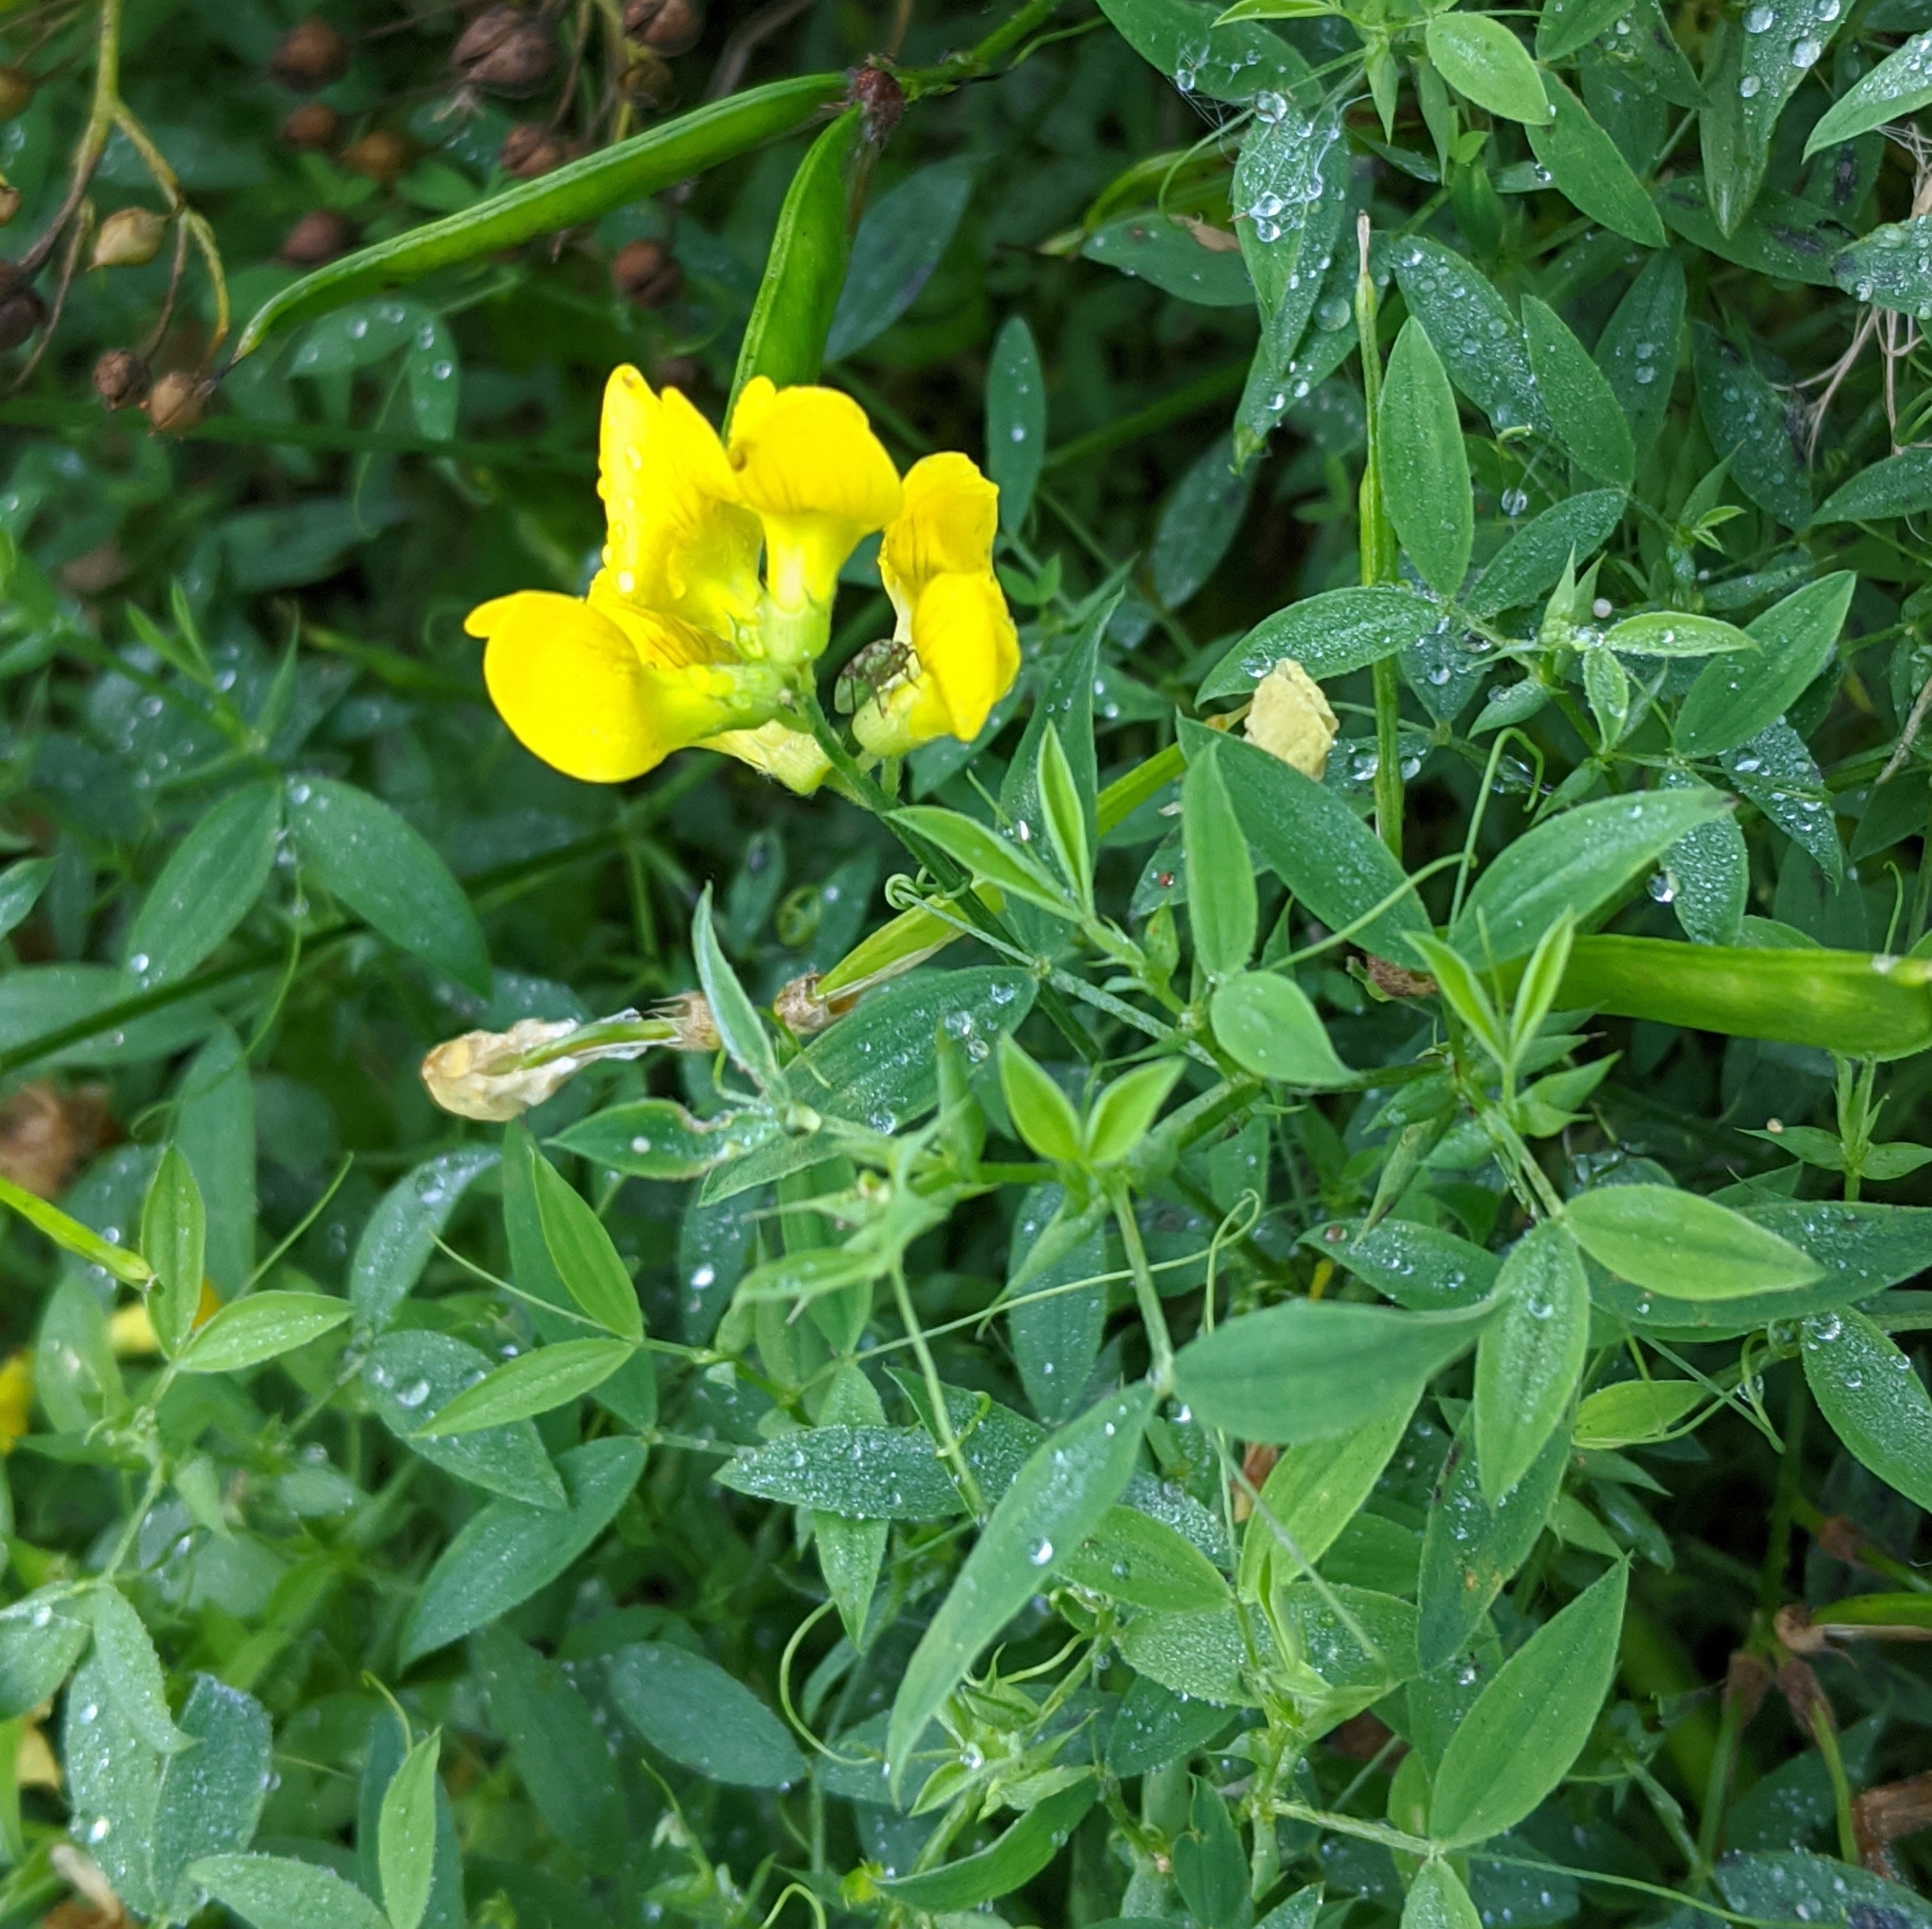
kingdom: Plantae
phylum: Tracheophyta
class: Magnoliopsida
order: Fabales
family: Fabaceae
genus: Lathyrus
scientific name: Lathyrus pratensis
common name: Meadow vetchling
